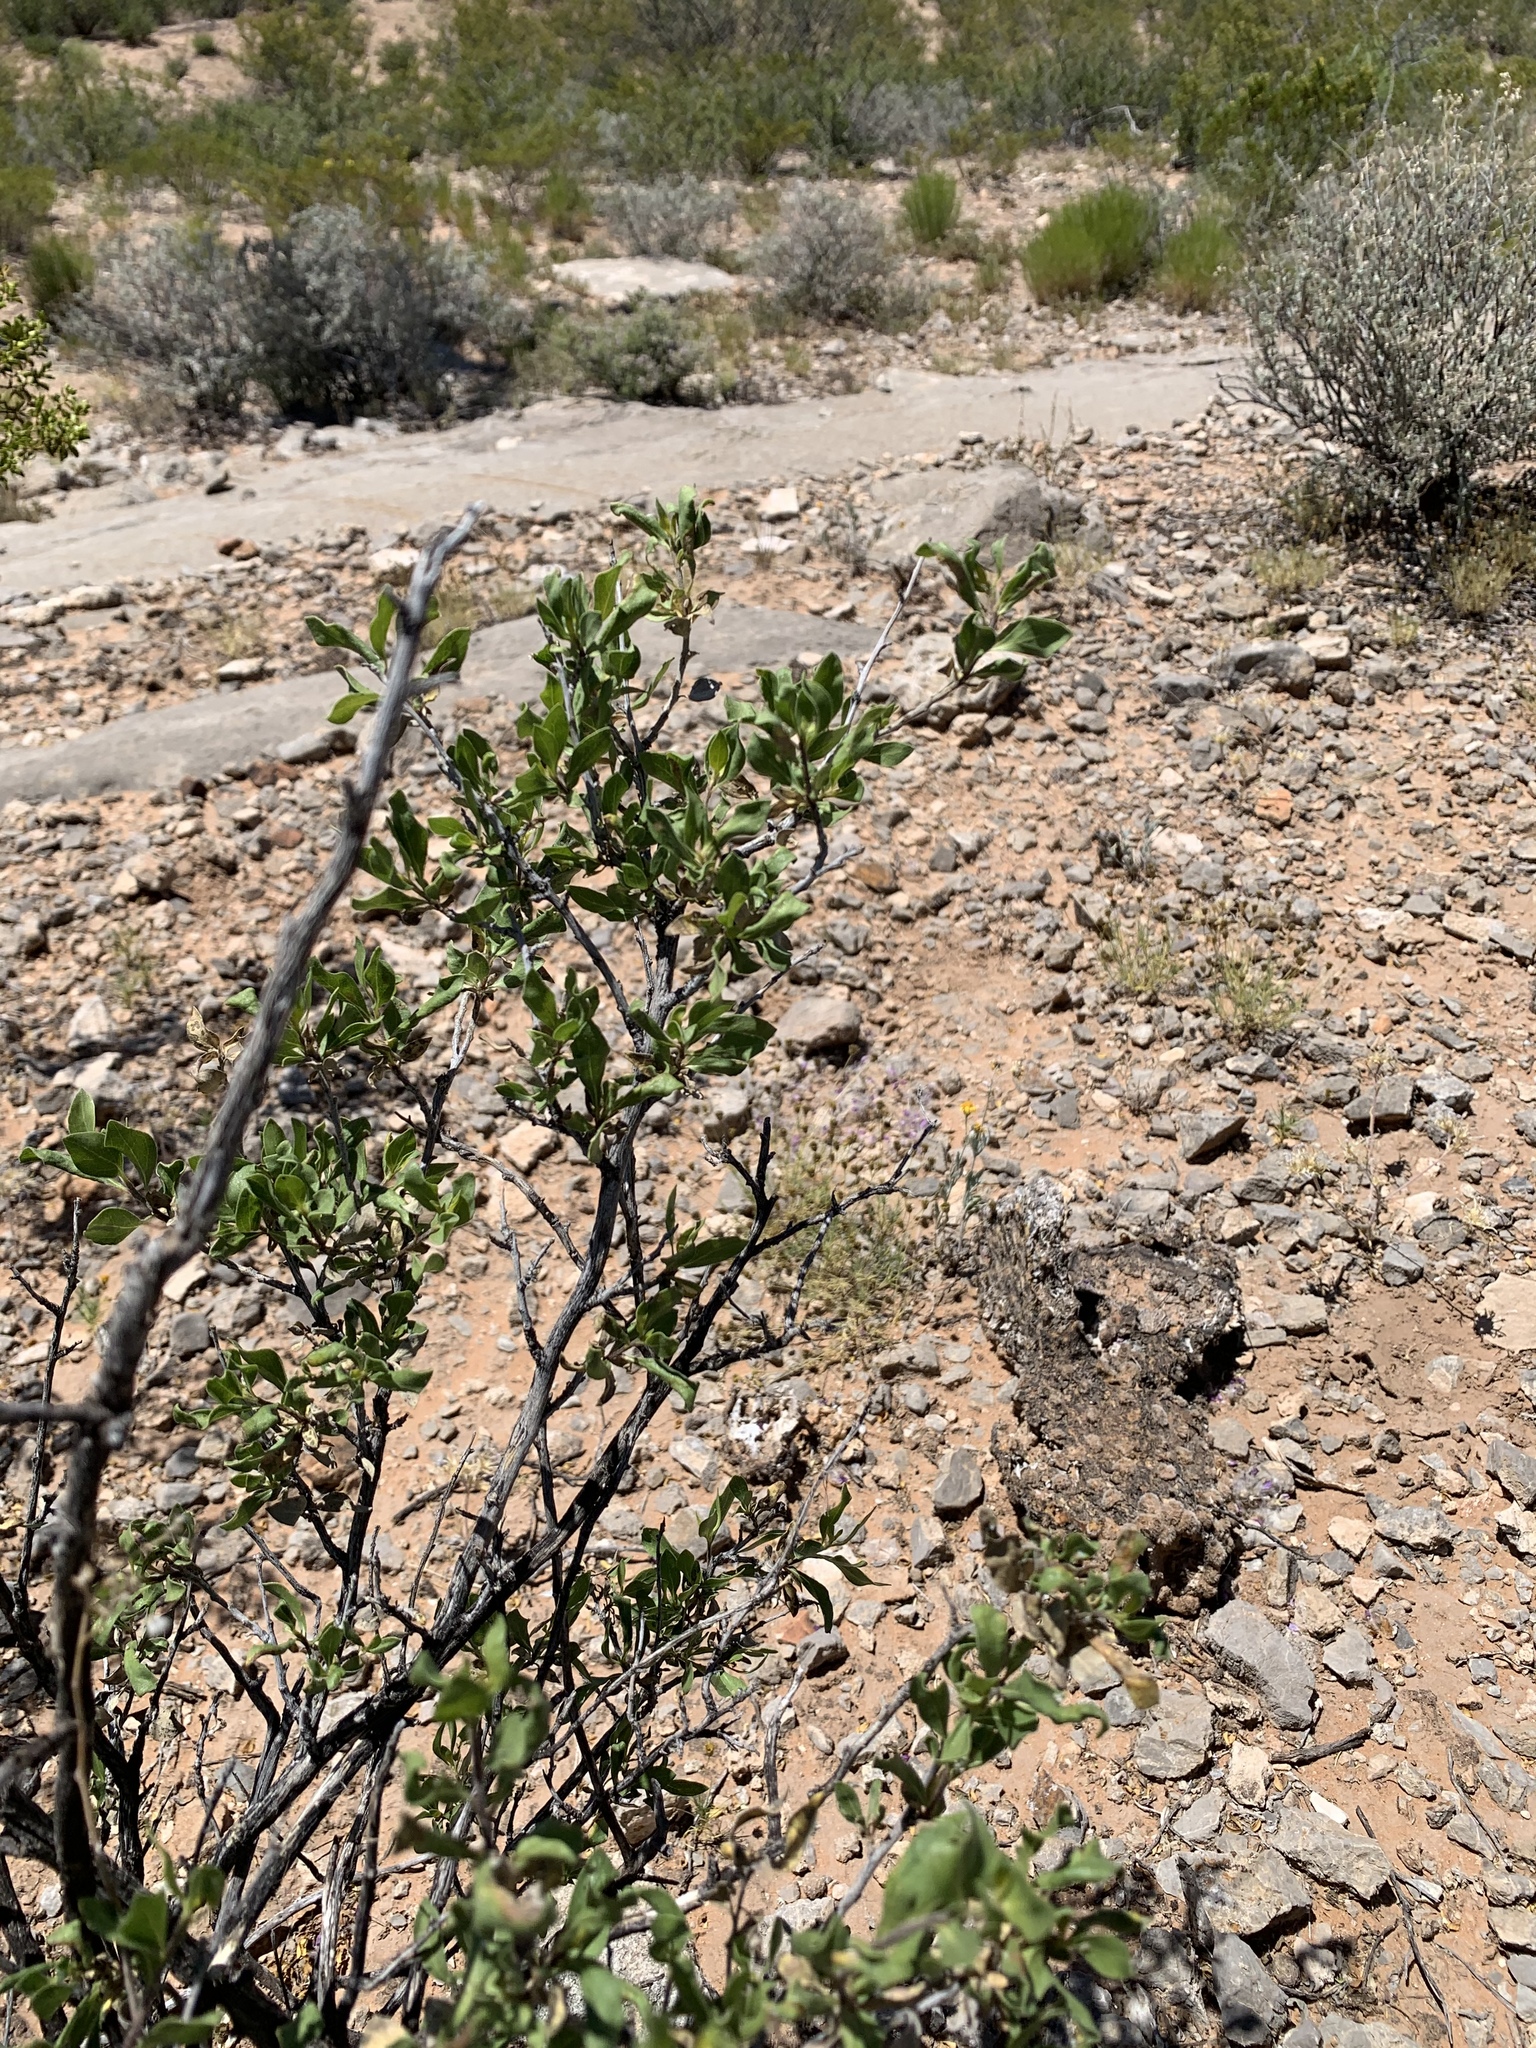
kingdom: Plantae
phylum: Tracheophyta
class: Magnoliopsida
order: Asterales
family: Asteraceae
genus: Flourensia
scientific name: Flourensia cernua
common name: Varnishbush
